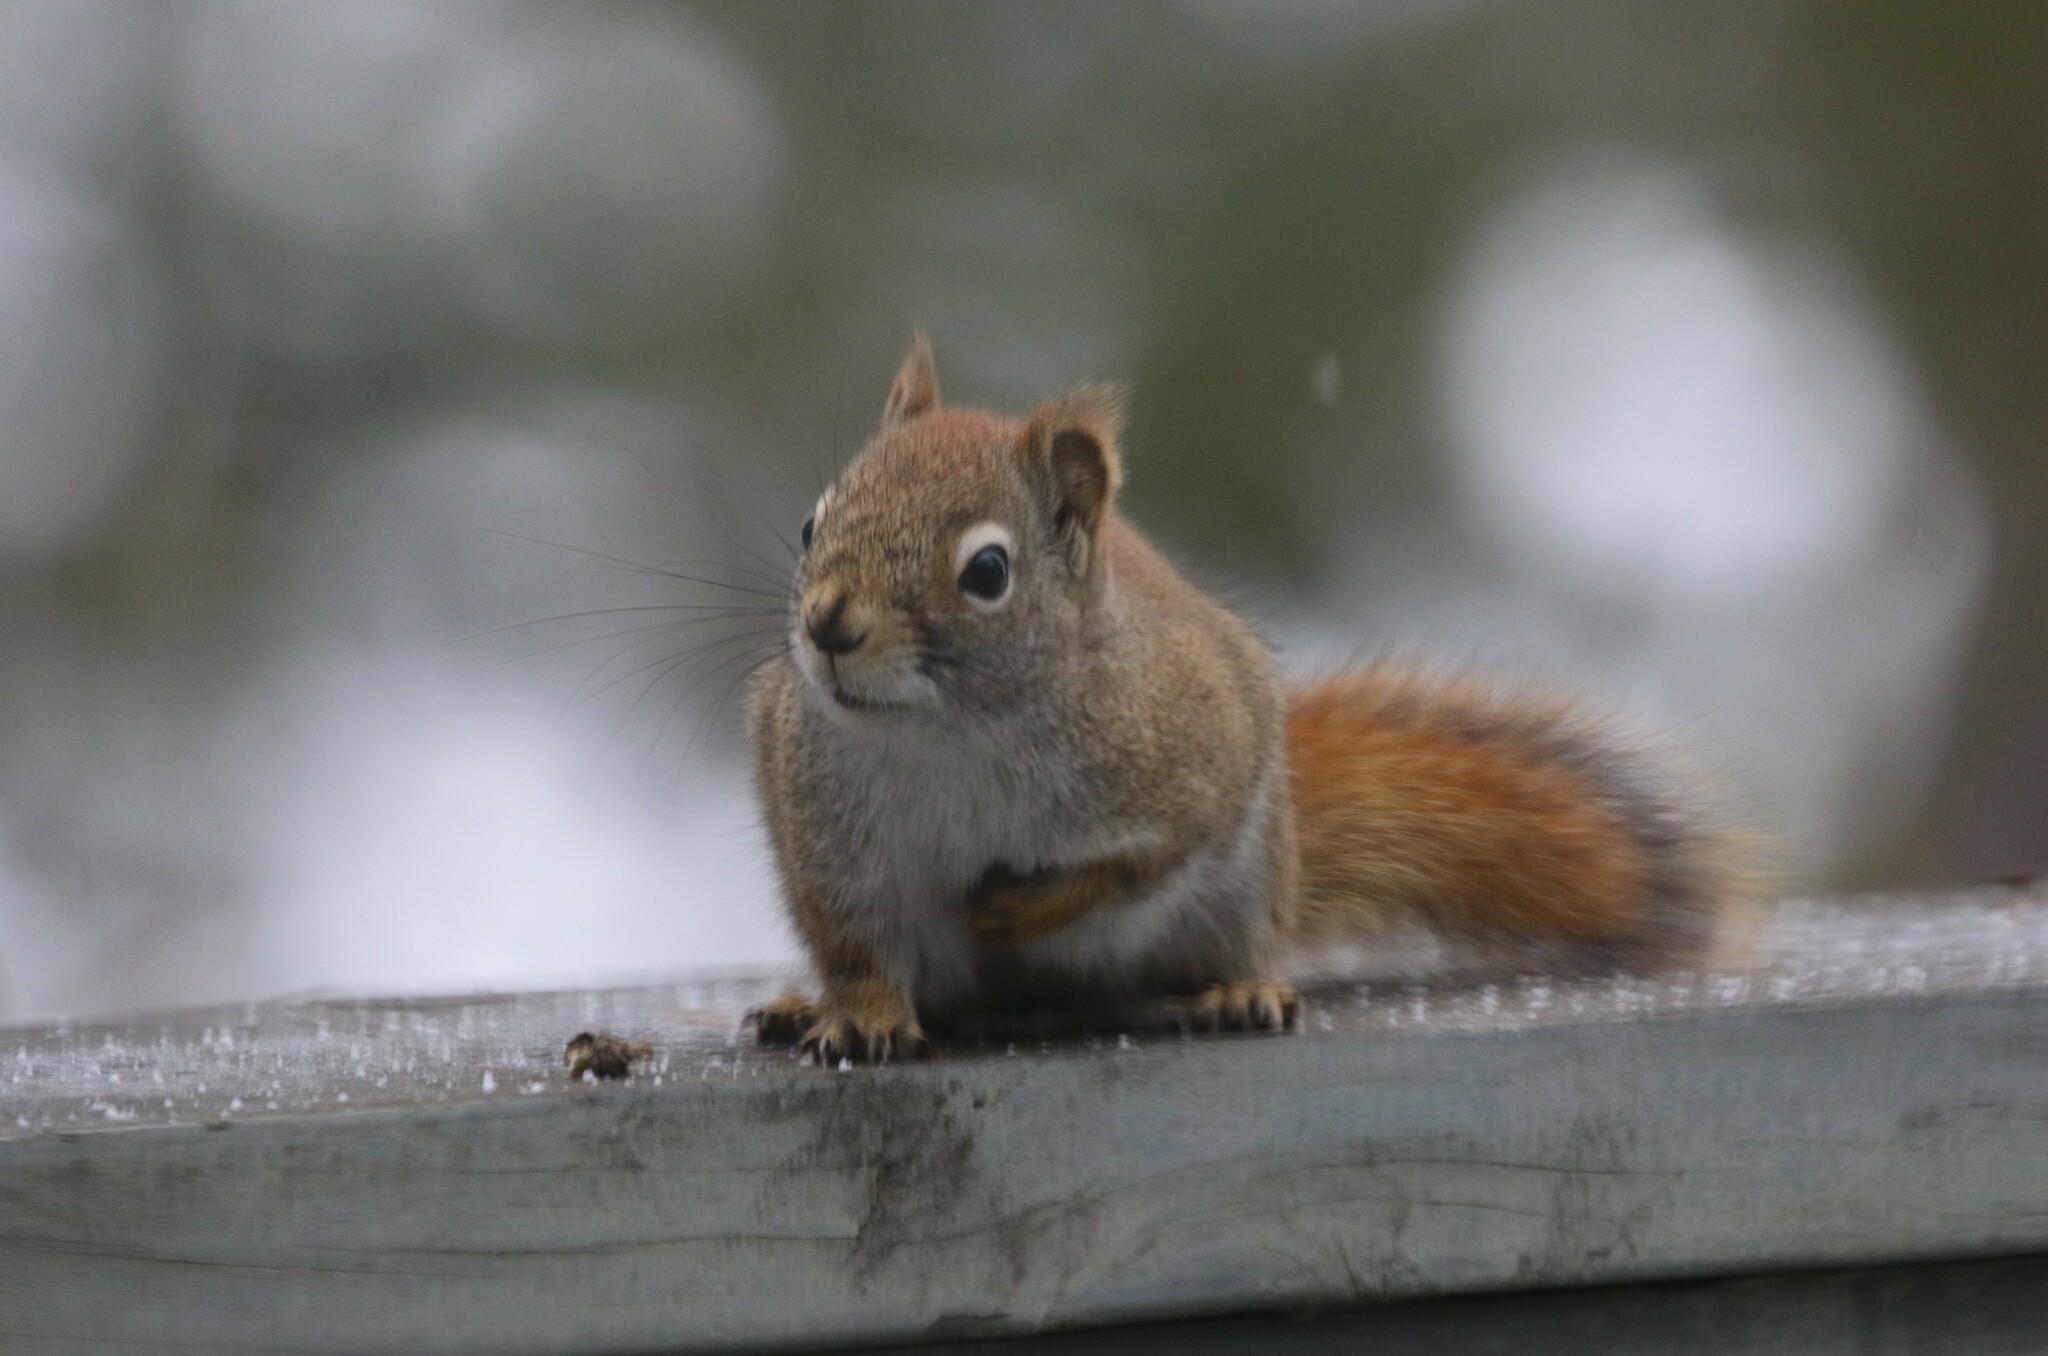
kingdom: Animalia
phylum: Chordata
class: Mammalia
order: Rodentia
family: Sciuridae
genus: Tamiasciurus
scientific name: Tamiasciurus hudsonicus
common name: Red squirrel
